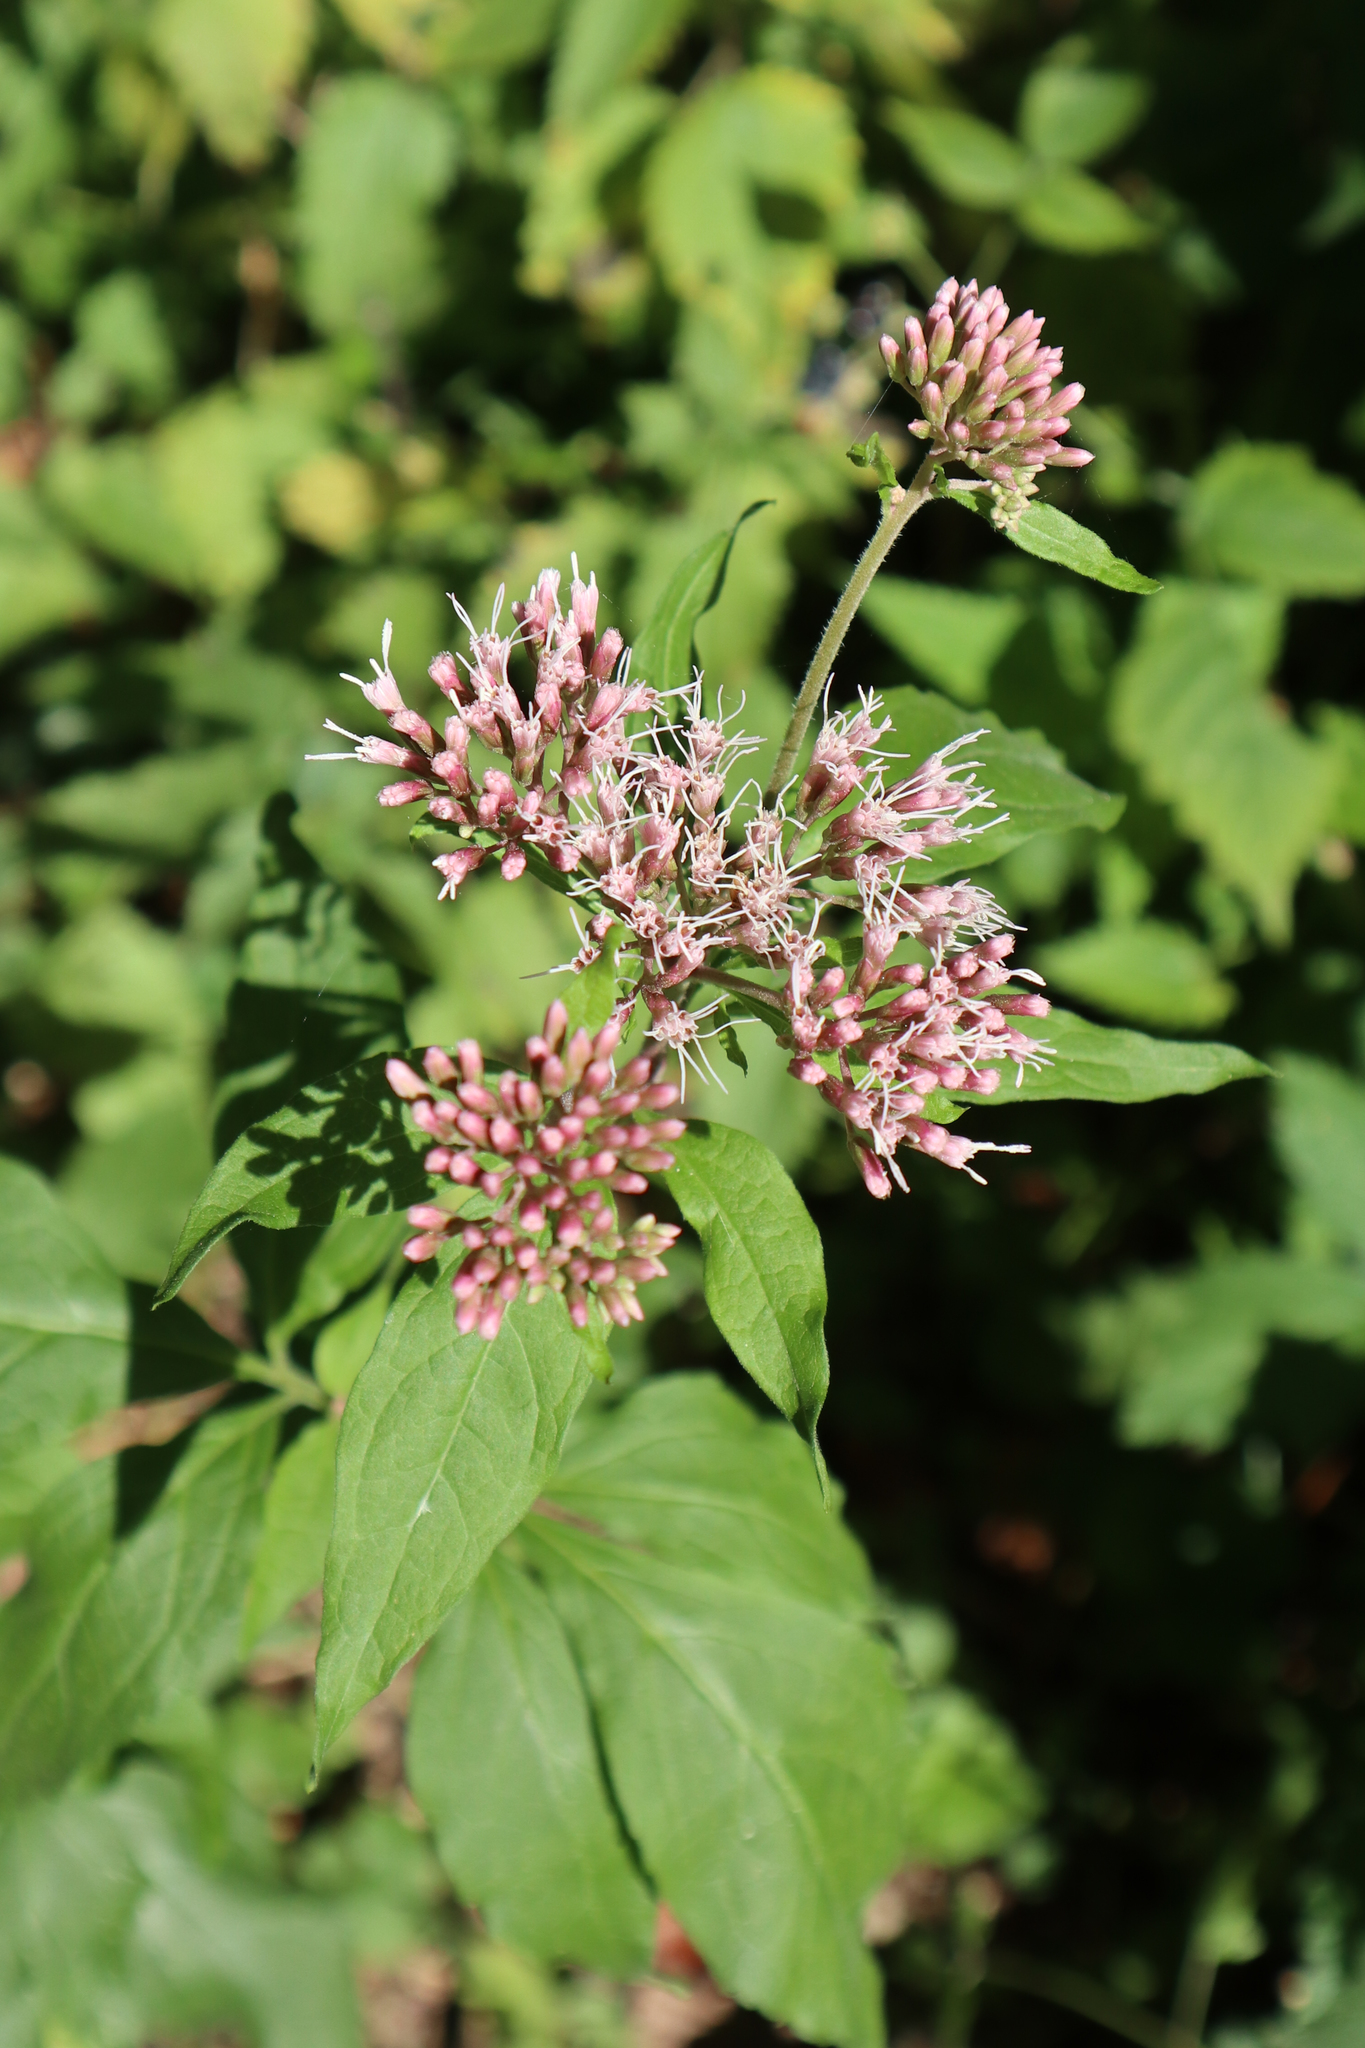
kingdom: Plantae
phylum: Tracheophyta
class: Magnoliopsida
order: Asterales
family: Asteraceae
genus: Eupatorium
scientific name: Eupatorium cannabinum
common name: Hemp-agrimony
